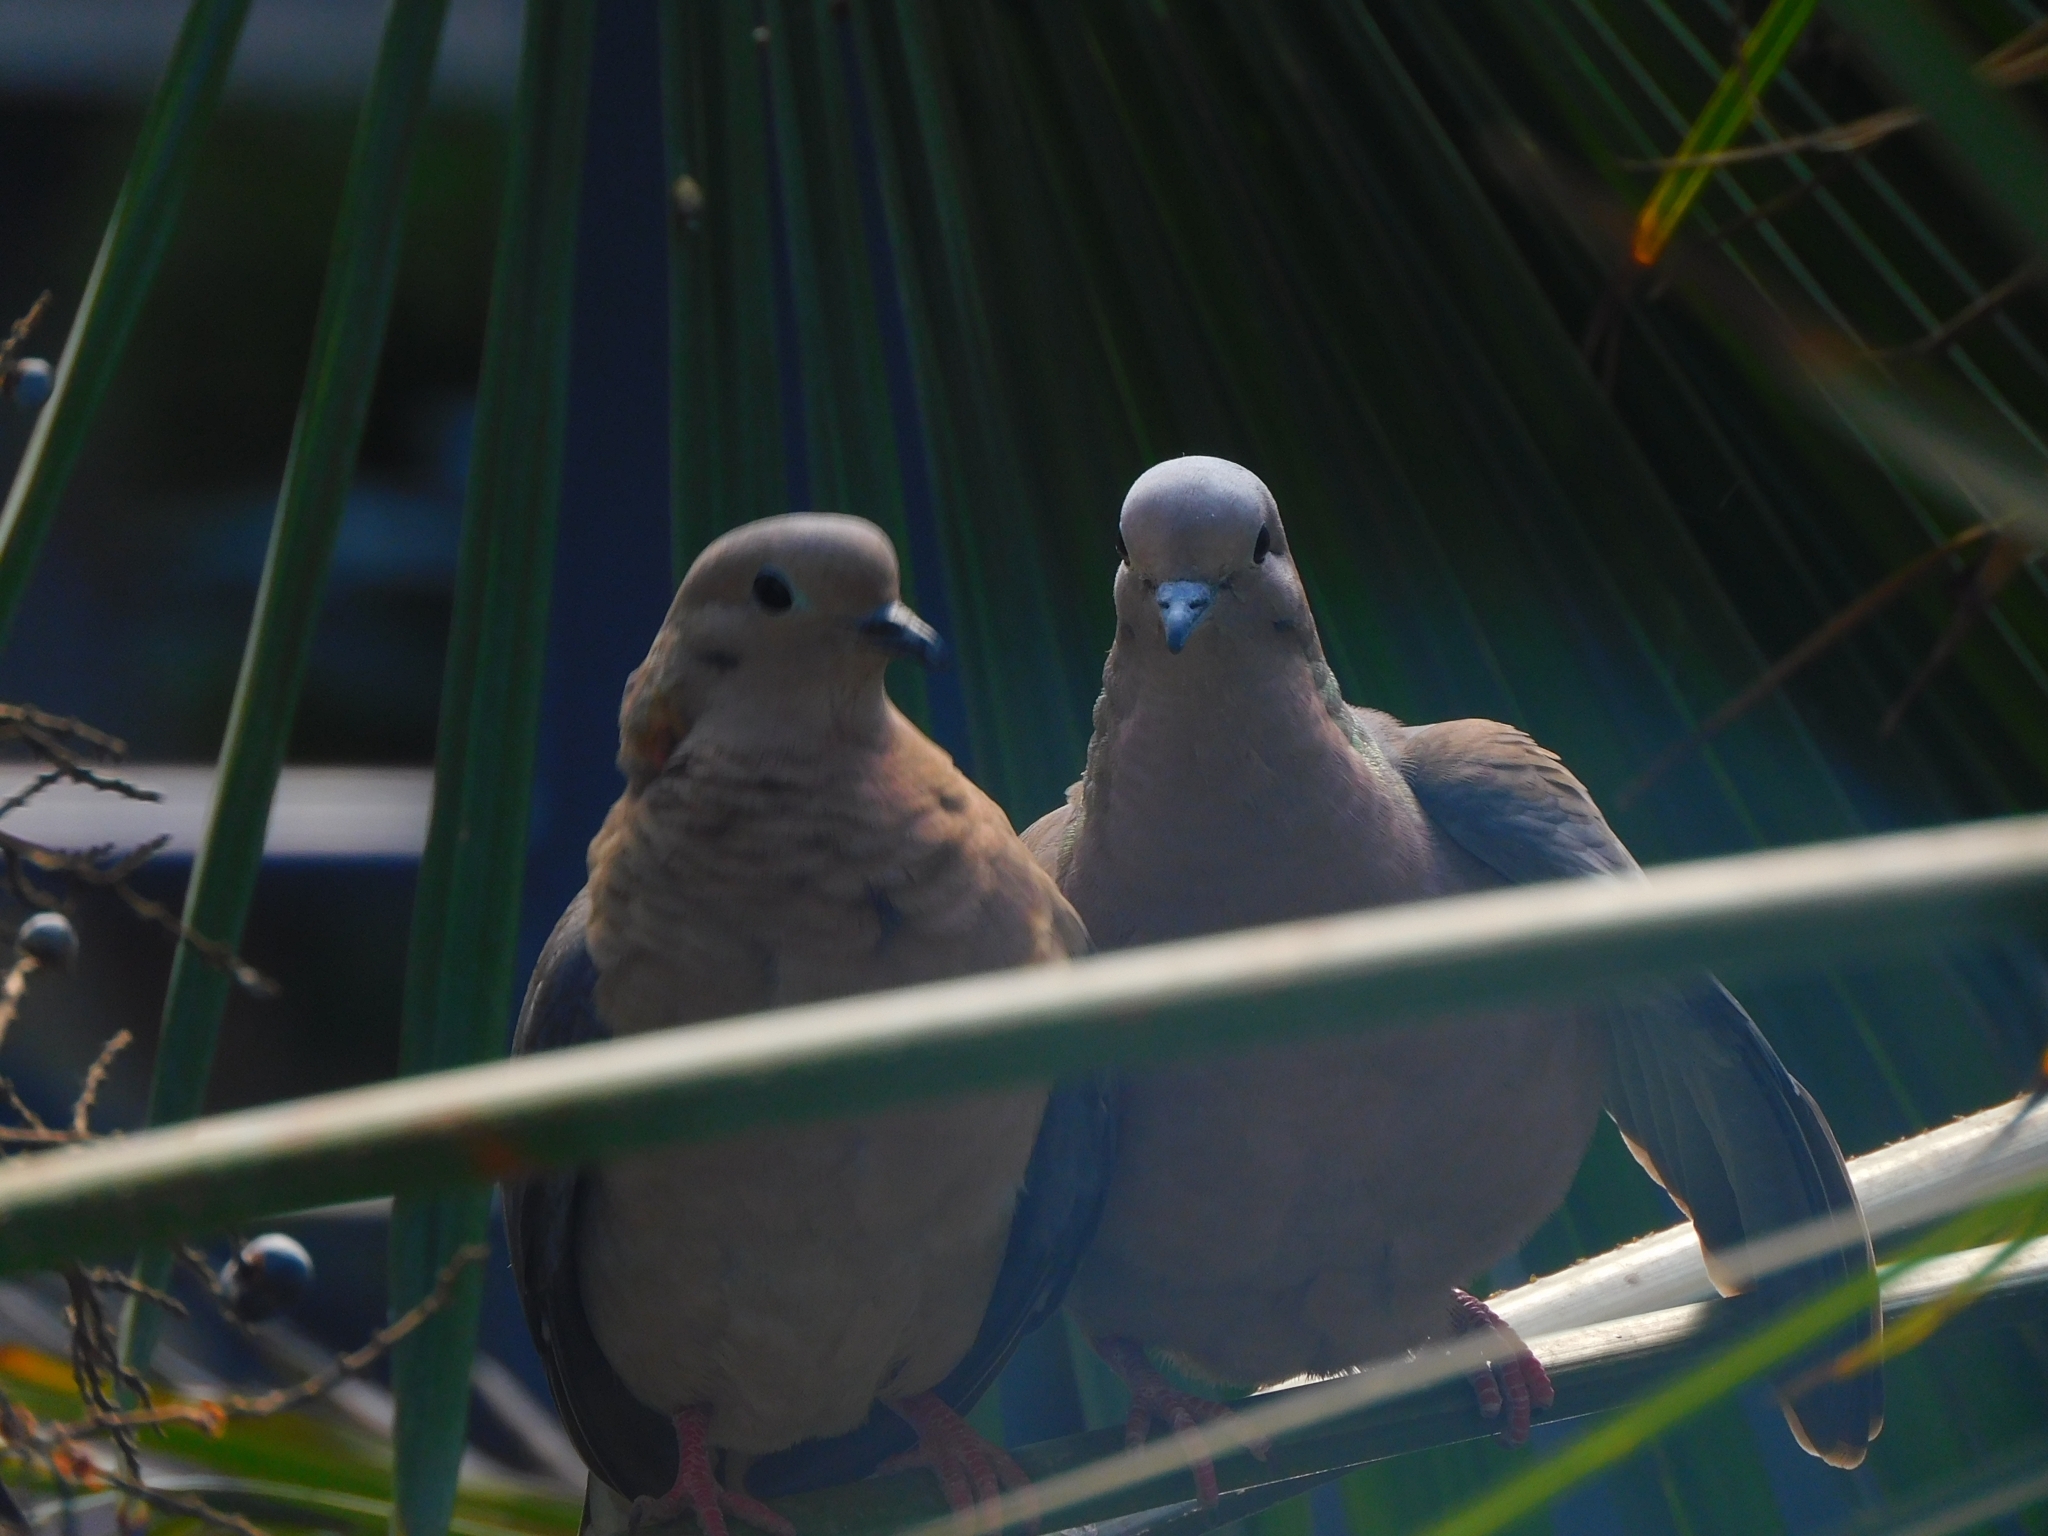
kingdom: Animalia
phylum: Chordata
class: Aves
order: Columbiformes
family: Columbidae
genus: Zenaida
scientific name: Zenaida auriculata
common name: Eared dove
